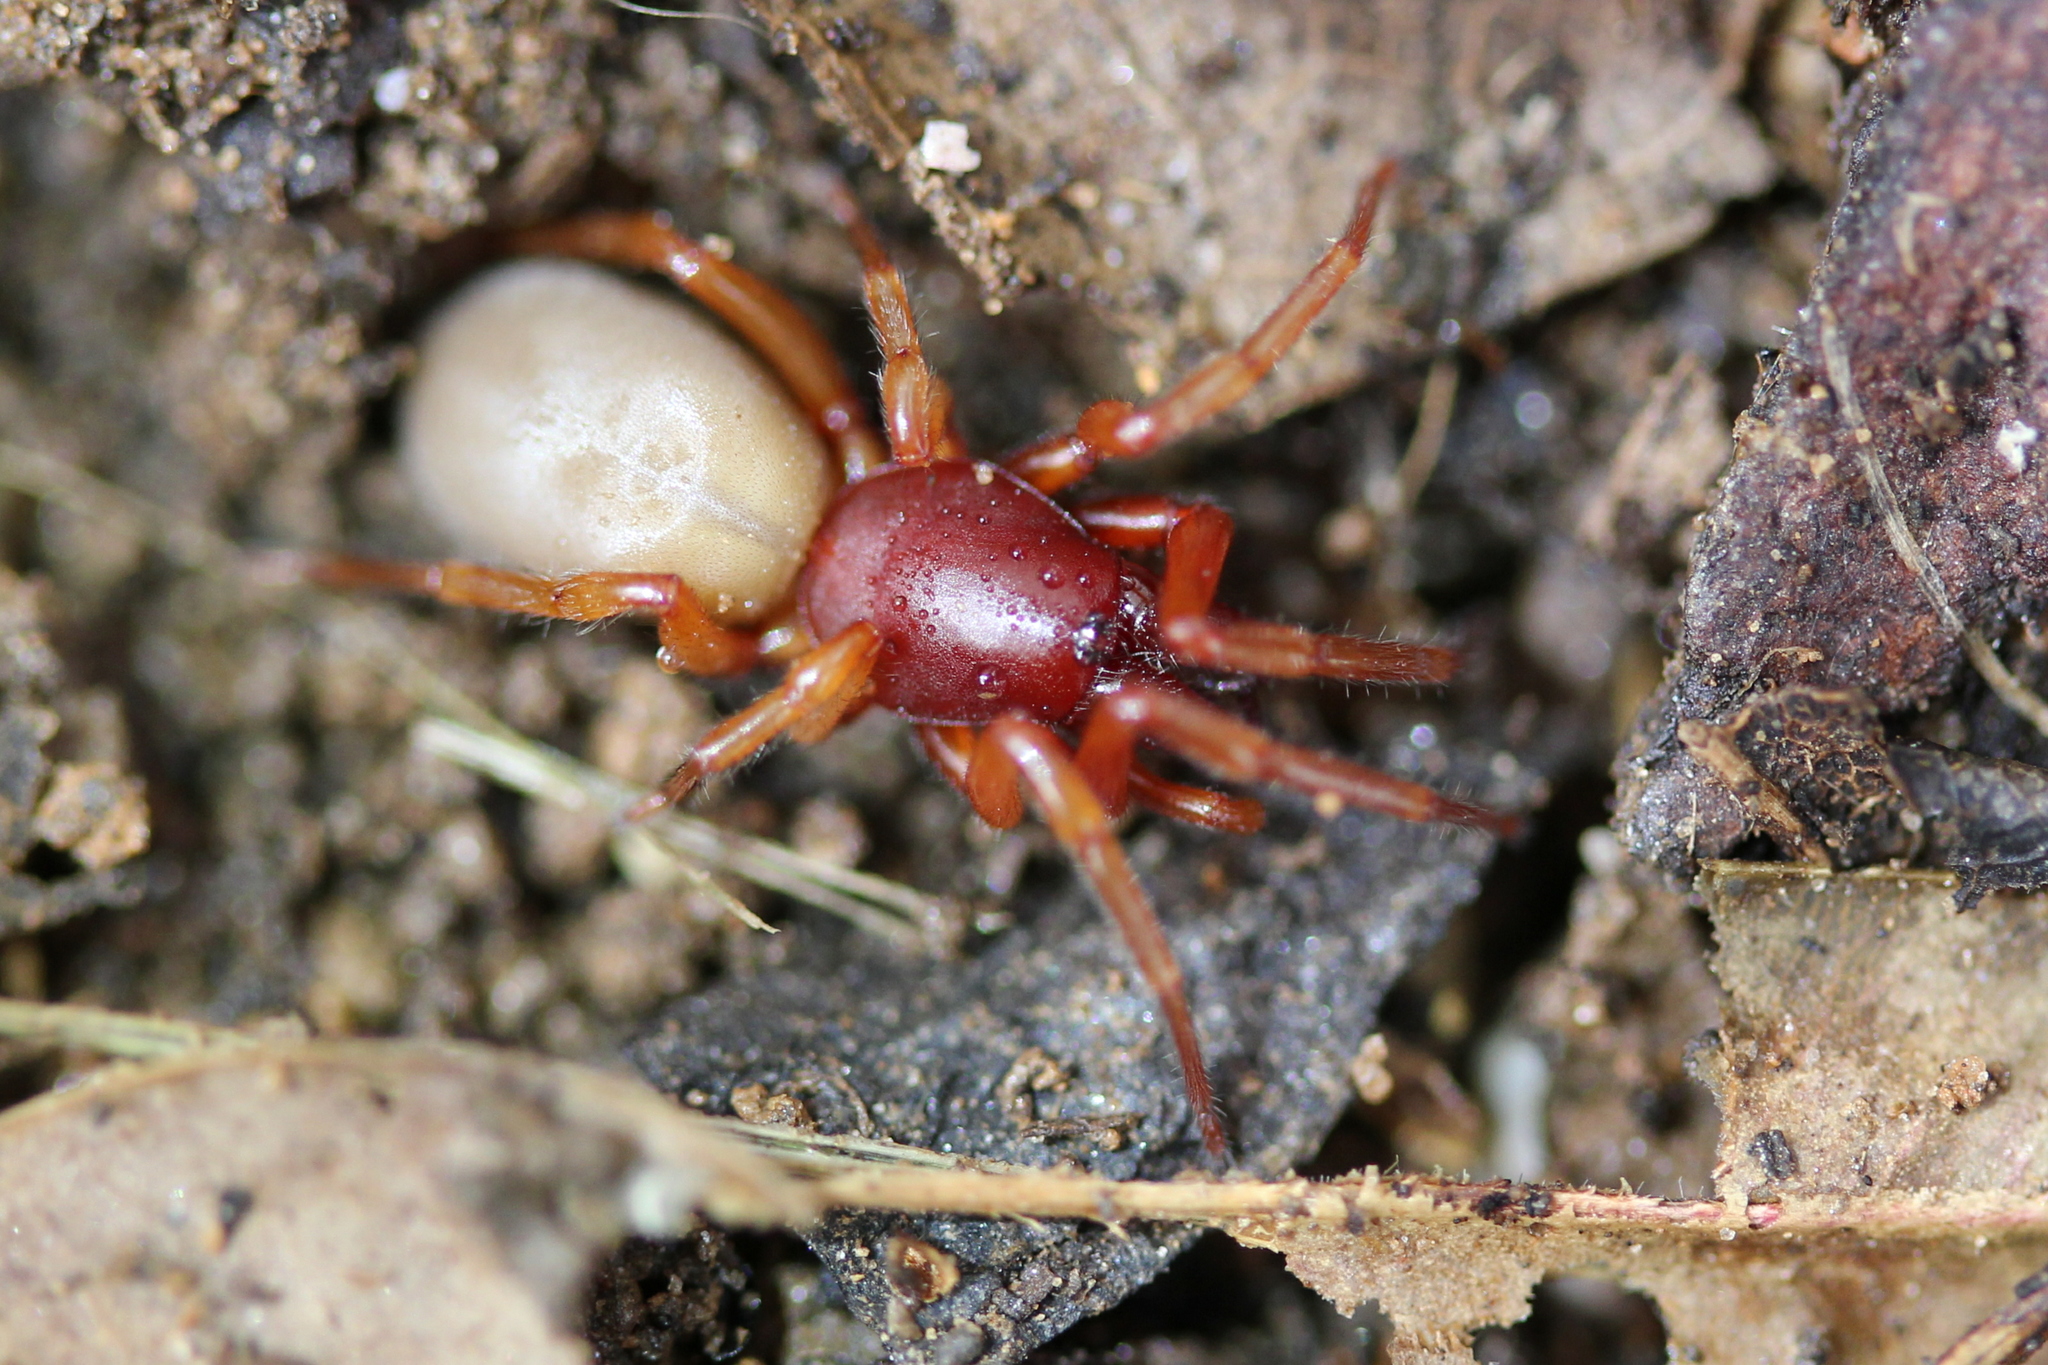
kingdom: Animalia
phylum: Arthropoda
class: Arachnida
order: Araneae
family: Dysderidae
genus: Dysdera
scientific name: Dysdera crocata
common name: Woodlouse spider
